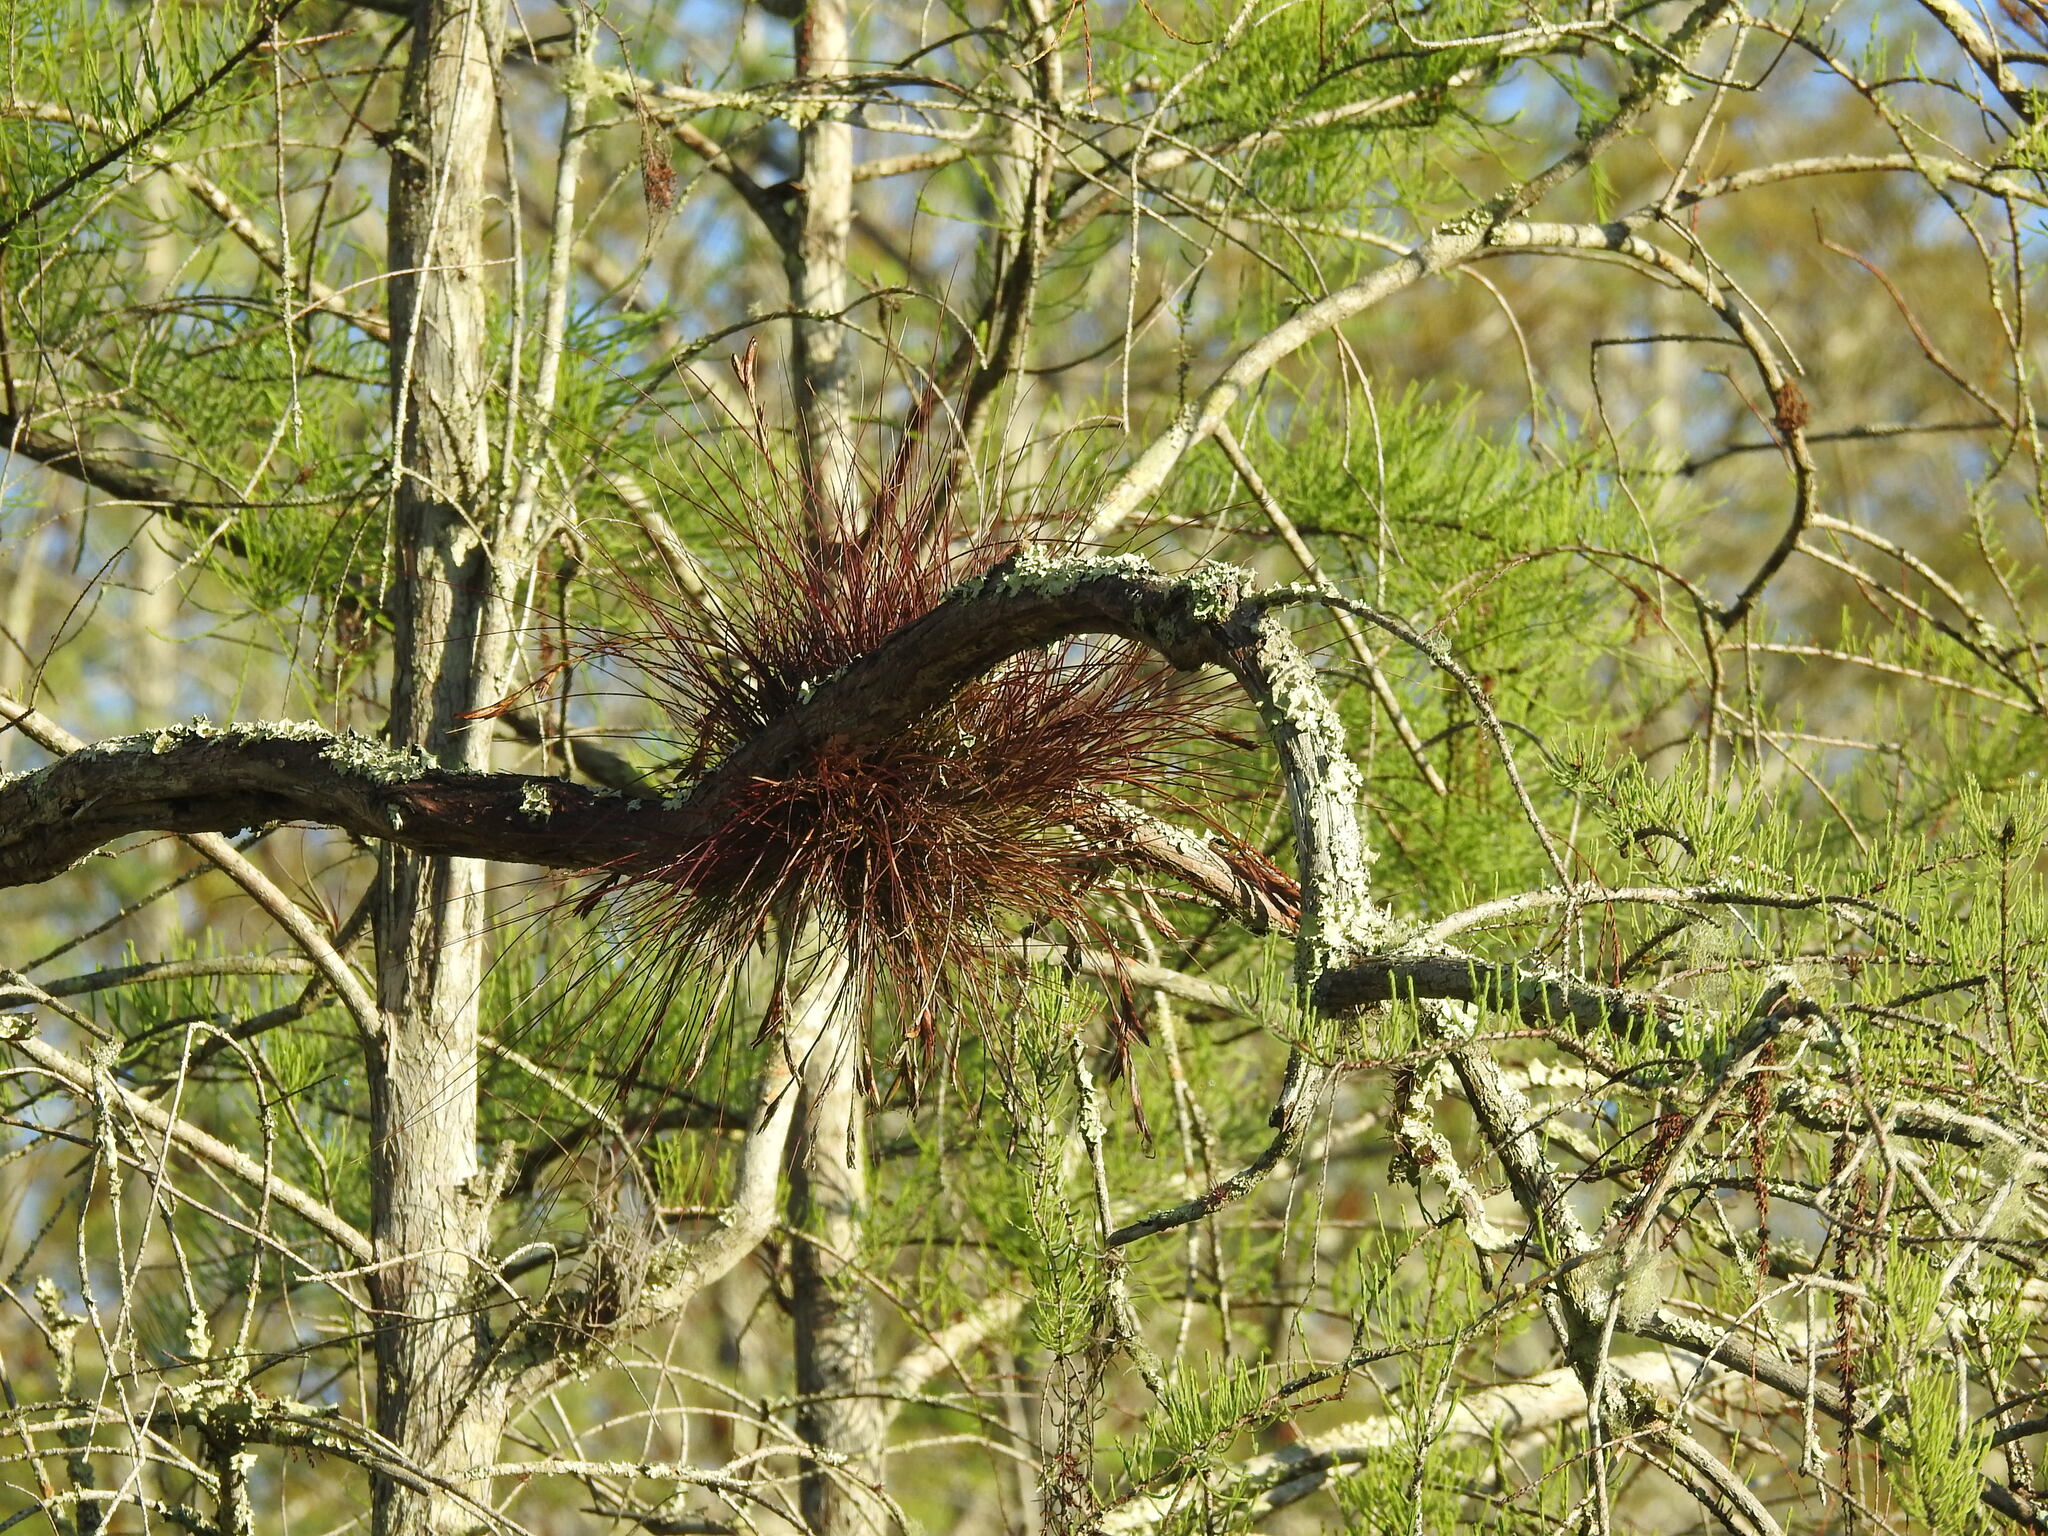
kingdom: Plantae
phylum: Tracheophyta
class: Liliopsida
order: Poales
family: Bromeliaceae
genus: Tillandsia
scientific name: Tillandsia setacea
